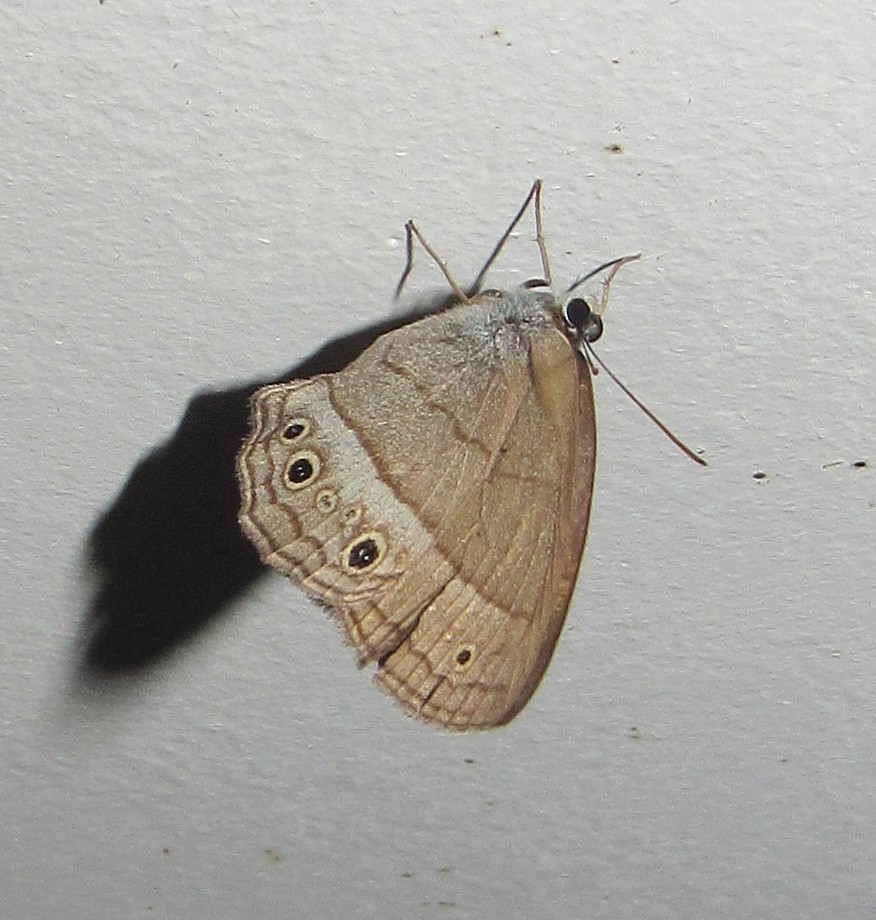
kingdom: Animalia
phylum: Arthropoda
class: Insecta
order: Lepidoptera
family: Nymphalidae
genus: Moneuptychia
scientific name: Moneuptychia
